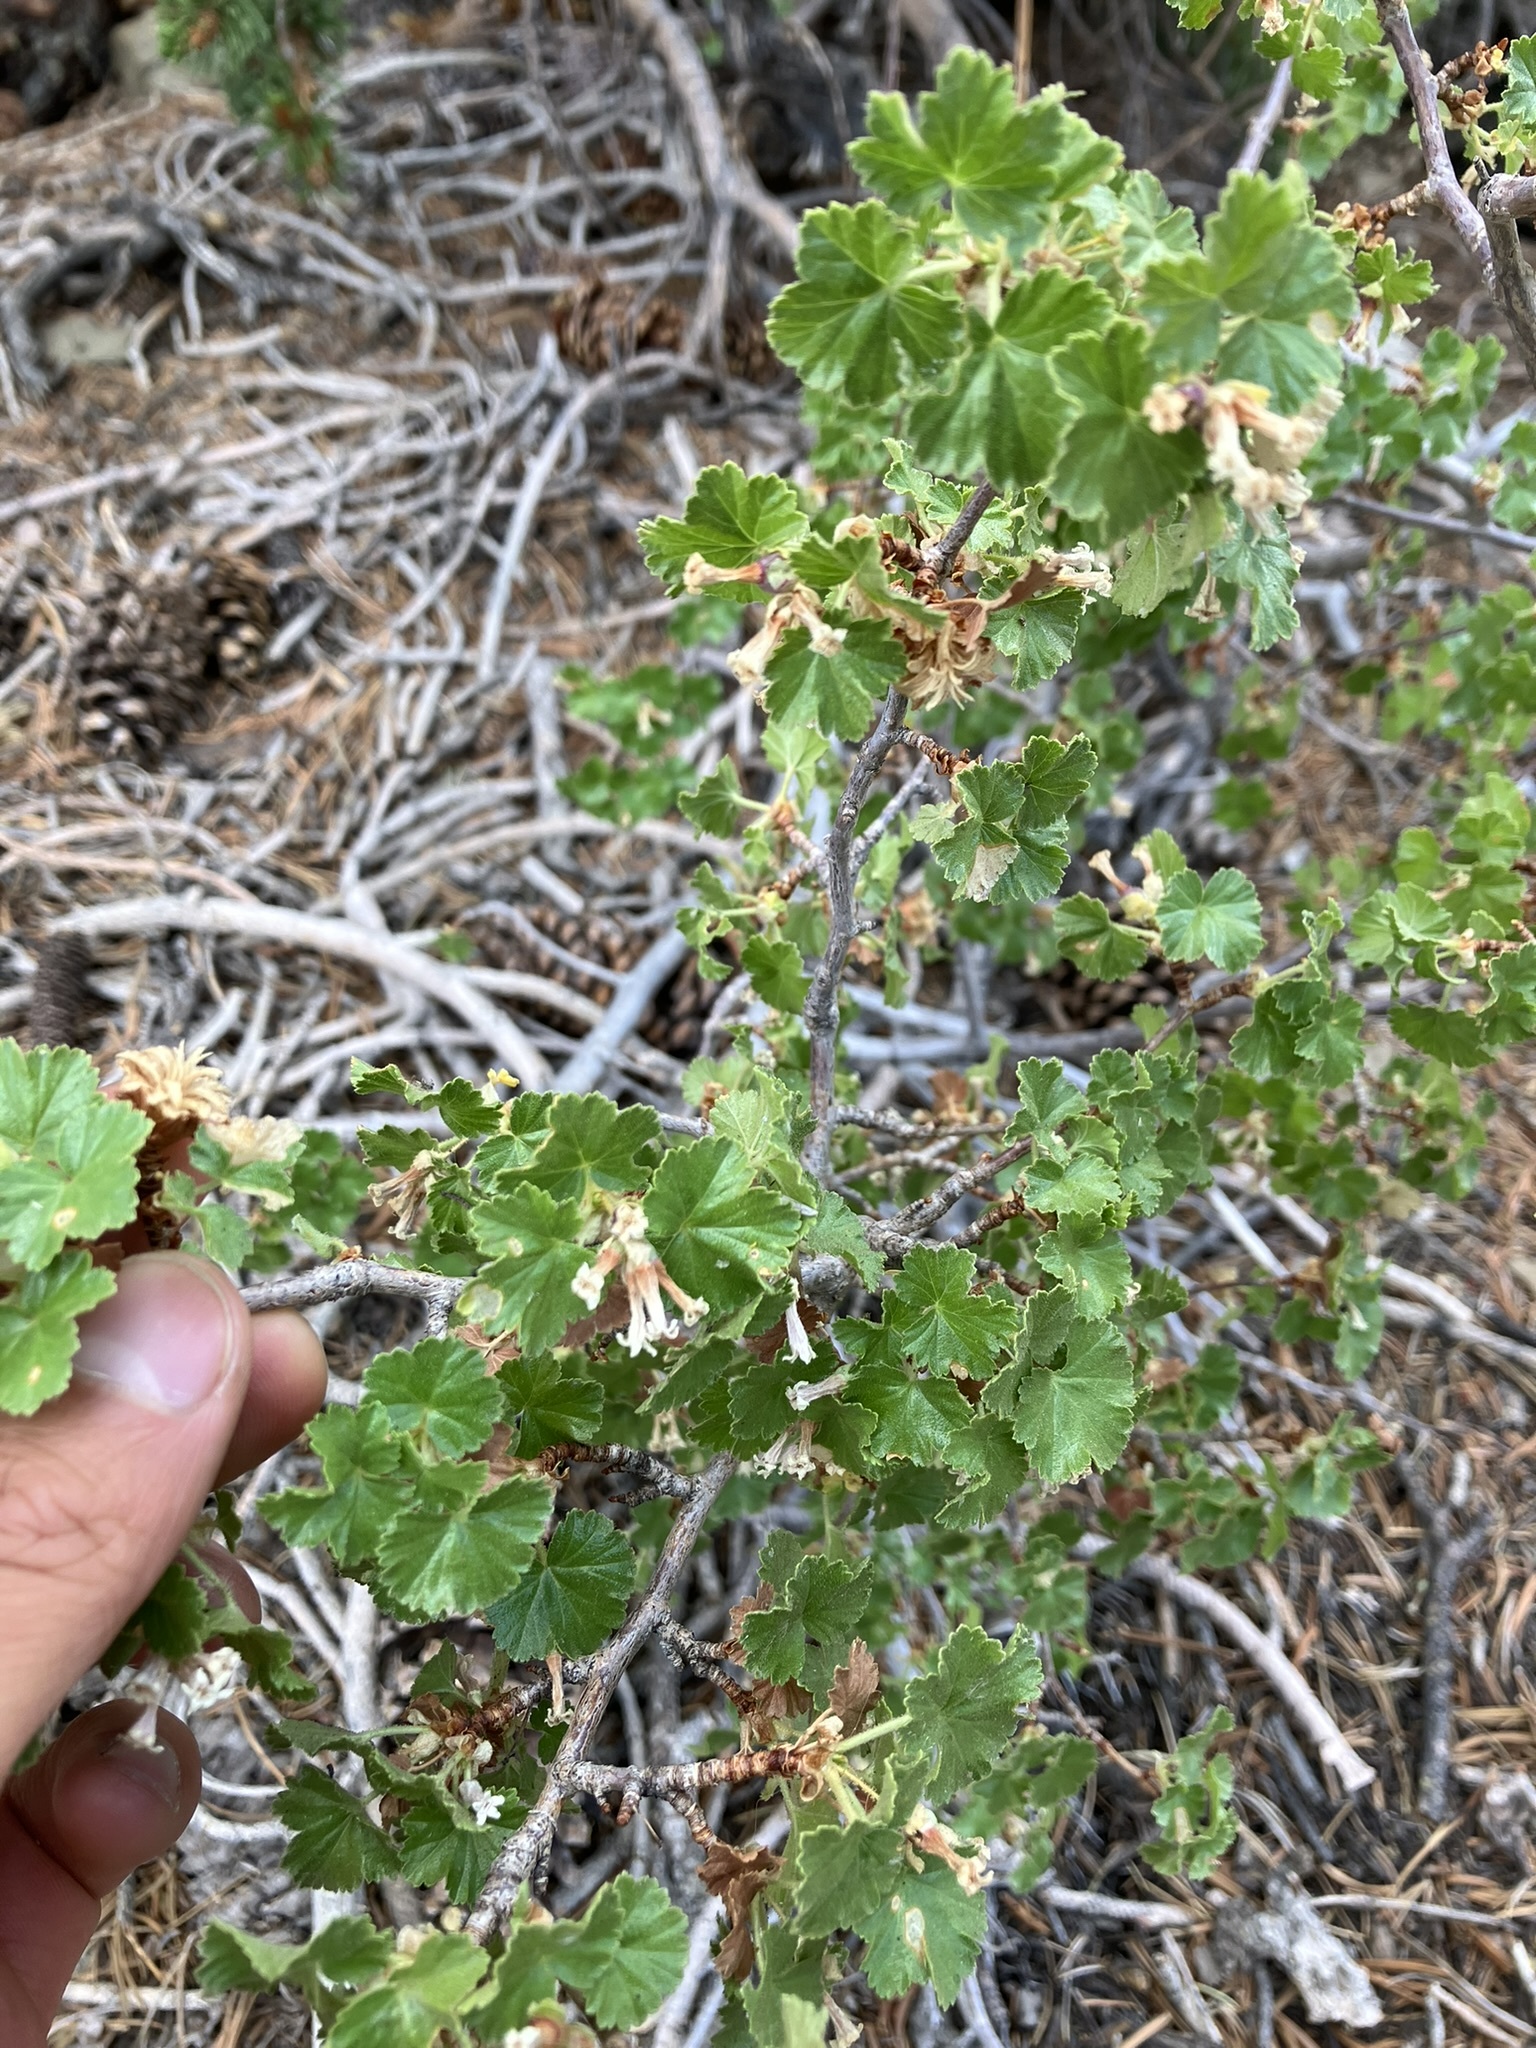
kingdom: Plantae
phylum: Tracheophyta
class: Magnoliopsida
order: Saxifragales
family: Grossulariaceae
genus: Ribes
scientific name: Ribes cereum
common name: Wax currant
